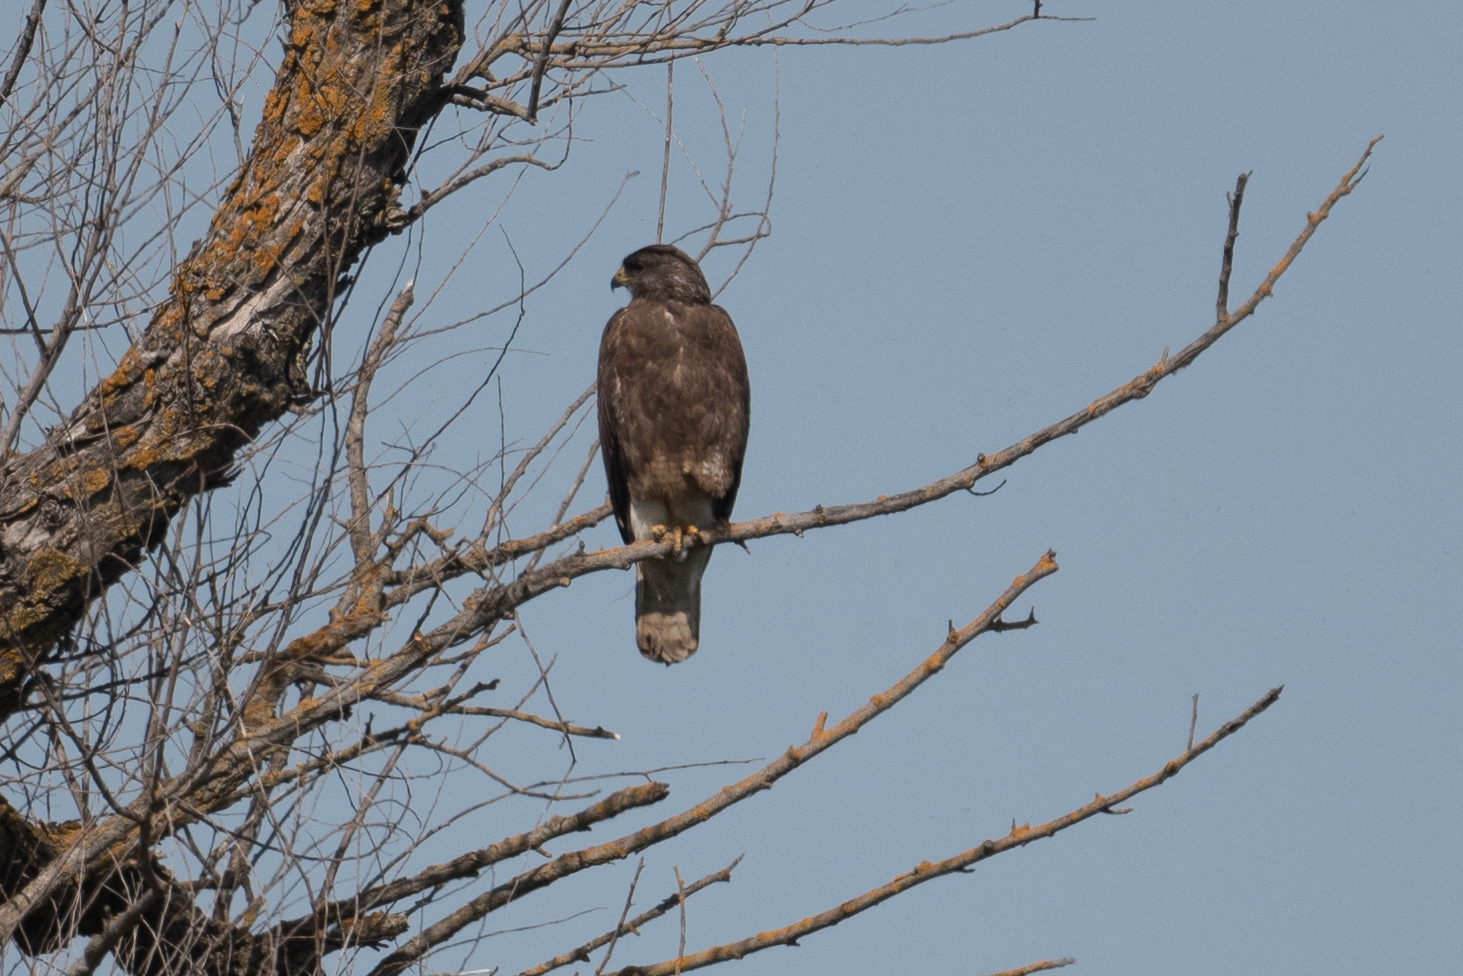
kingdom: Animalia
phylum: Chordata
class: Aves
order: Accipitriformes
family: Accipitridae
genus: Buteo
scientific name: Buteo swainsoni
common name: Swainson's hawk
